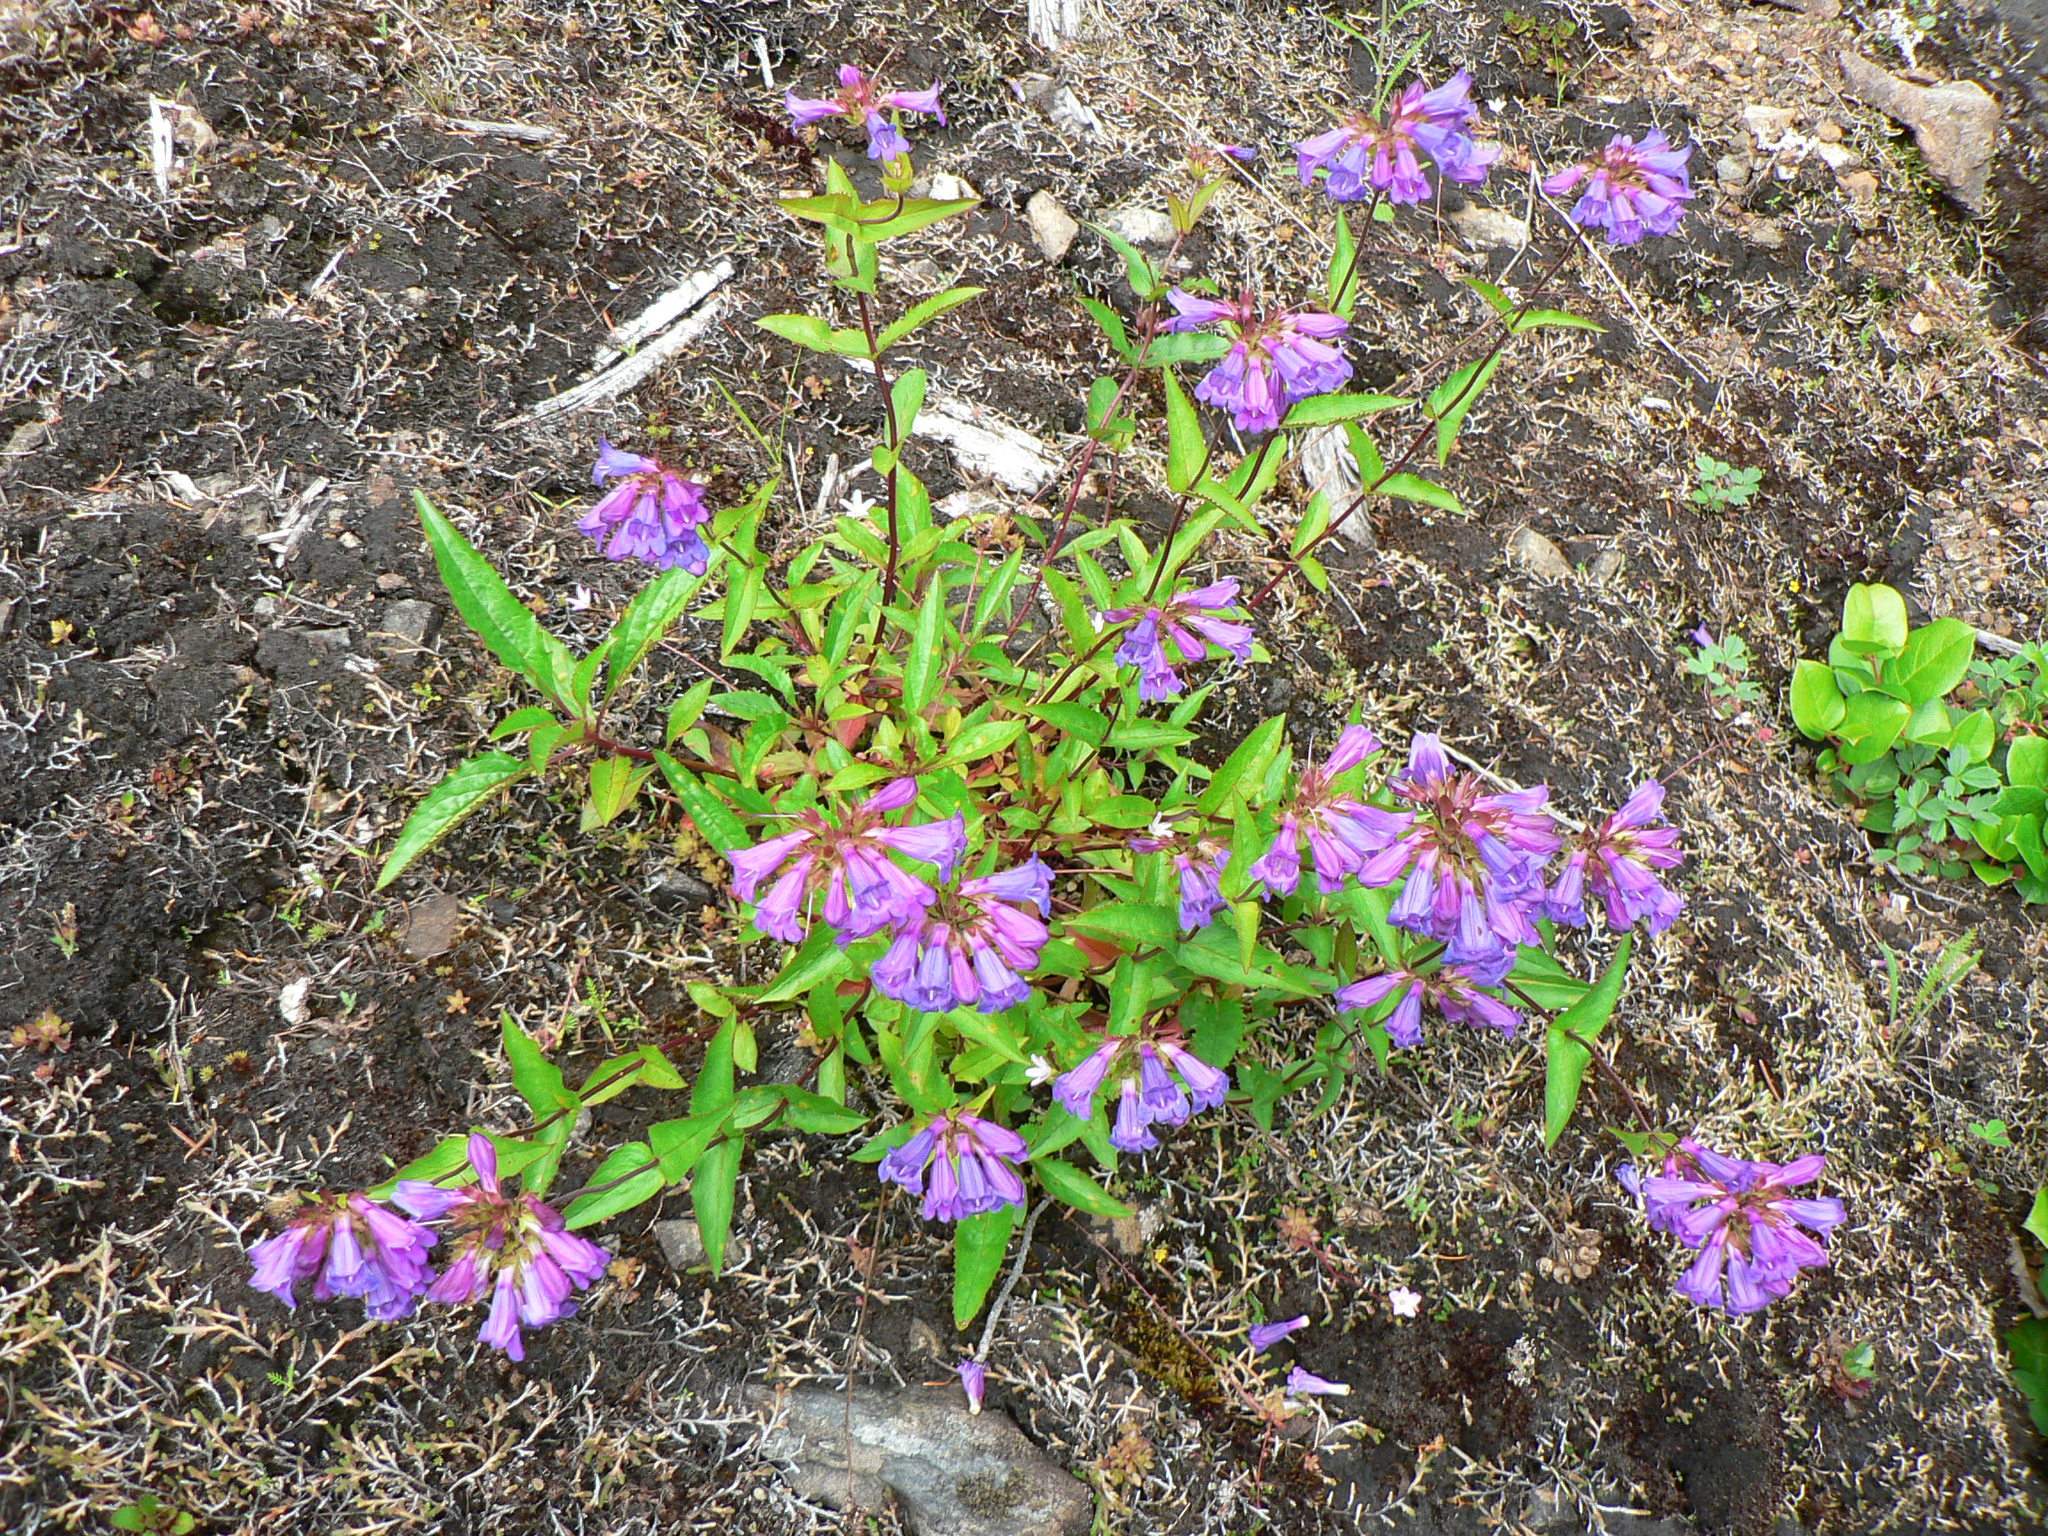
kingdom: Plantae
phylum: Tracheophyta
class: Magnoliopsida
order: Lamiales
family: Plantaginaceae
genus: Penstemon
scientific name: Penstemon serrulatus
